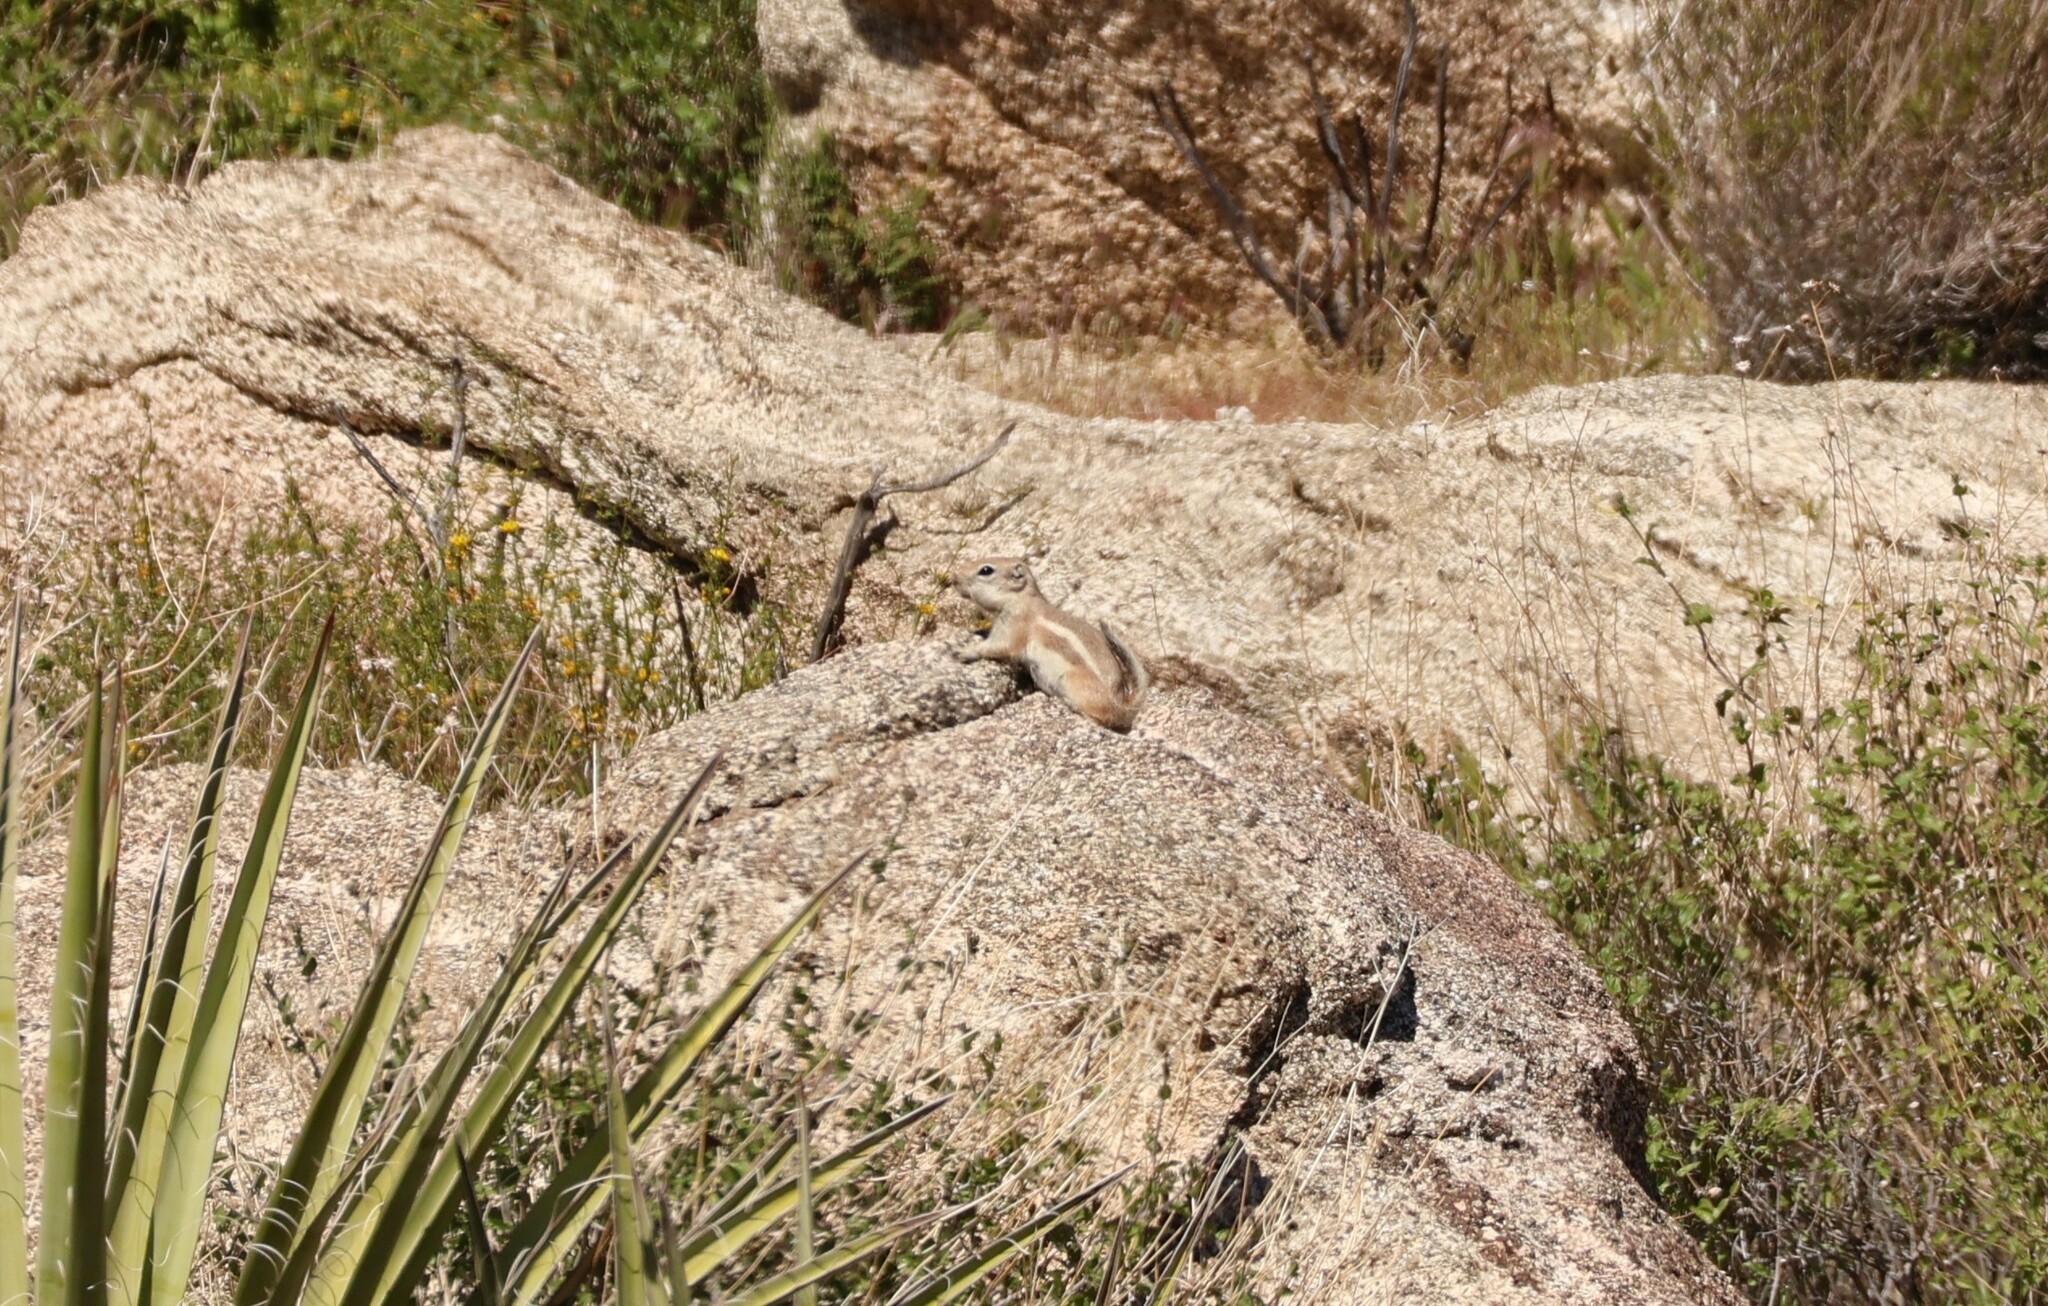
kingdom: Animalia
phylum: Chordata
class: Mammalia
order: Rodentia
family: Sciuridae
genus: Ammospermophilus
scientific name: Ammospermophilus leucurus
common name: White-tailed antelope squirrel
